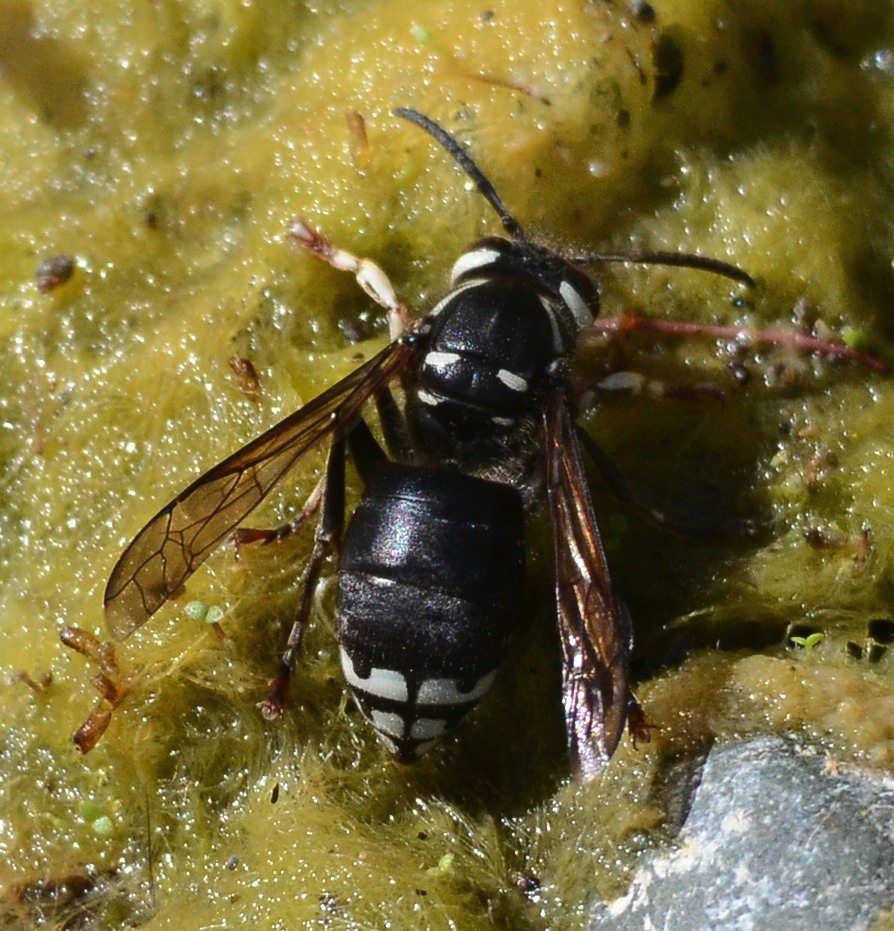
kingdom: Animalia
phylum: Arthropoda
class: Insecta
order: Hymenoptera
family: Vespidae
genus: Dolichovespula
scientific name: Dolichovespula maculata
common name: Bald-faced hornet
